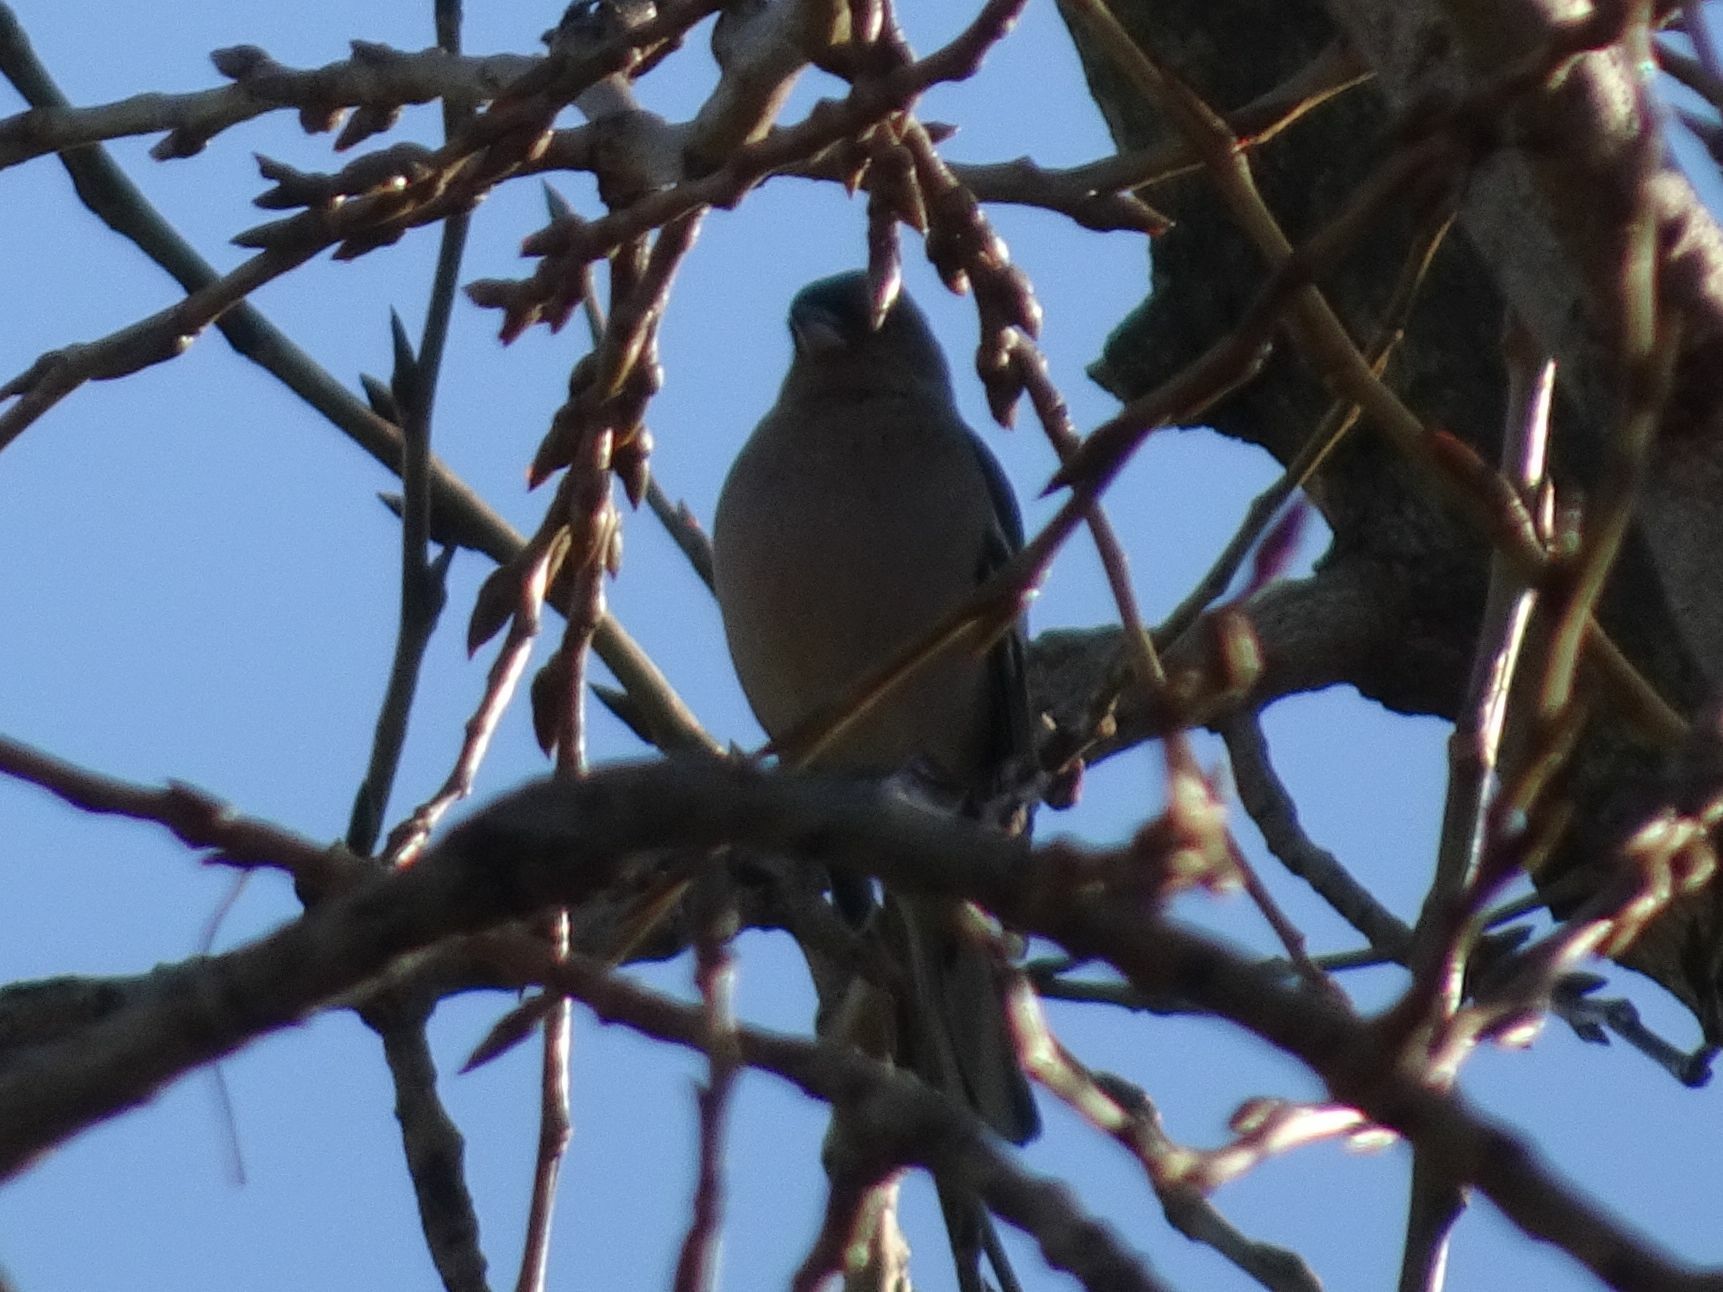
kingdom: Animalia
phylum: Chordata
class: Aves
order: Passeriformes
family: Fringillidae
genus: Fringilla
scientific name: Fringilla coelebs
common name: Common chaffinch
